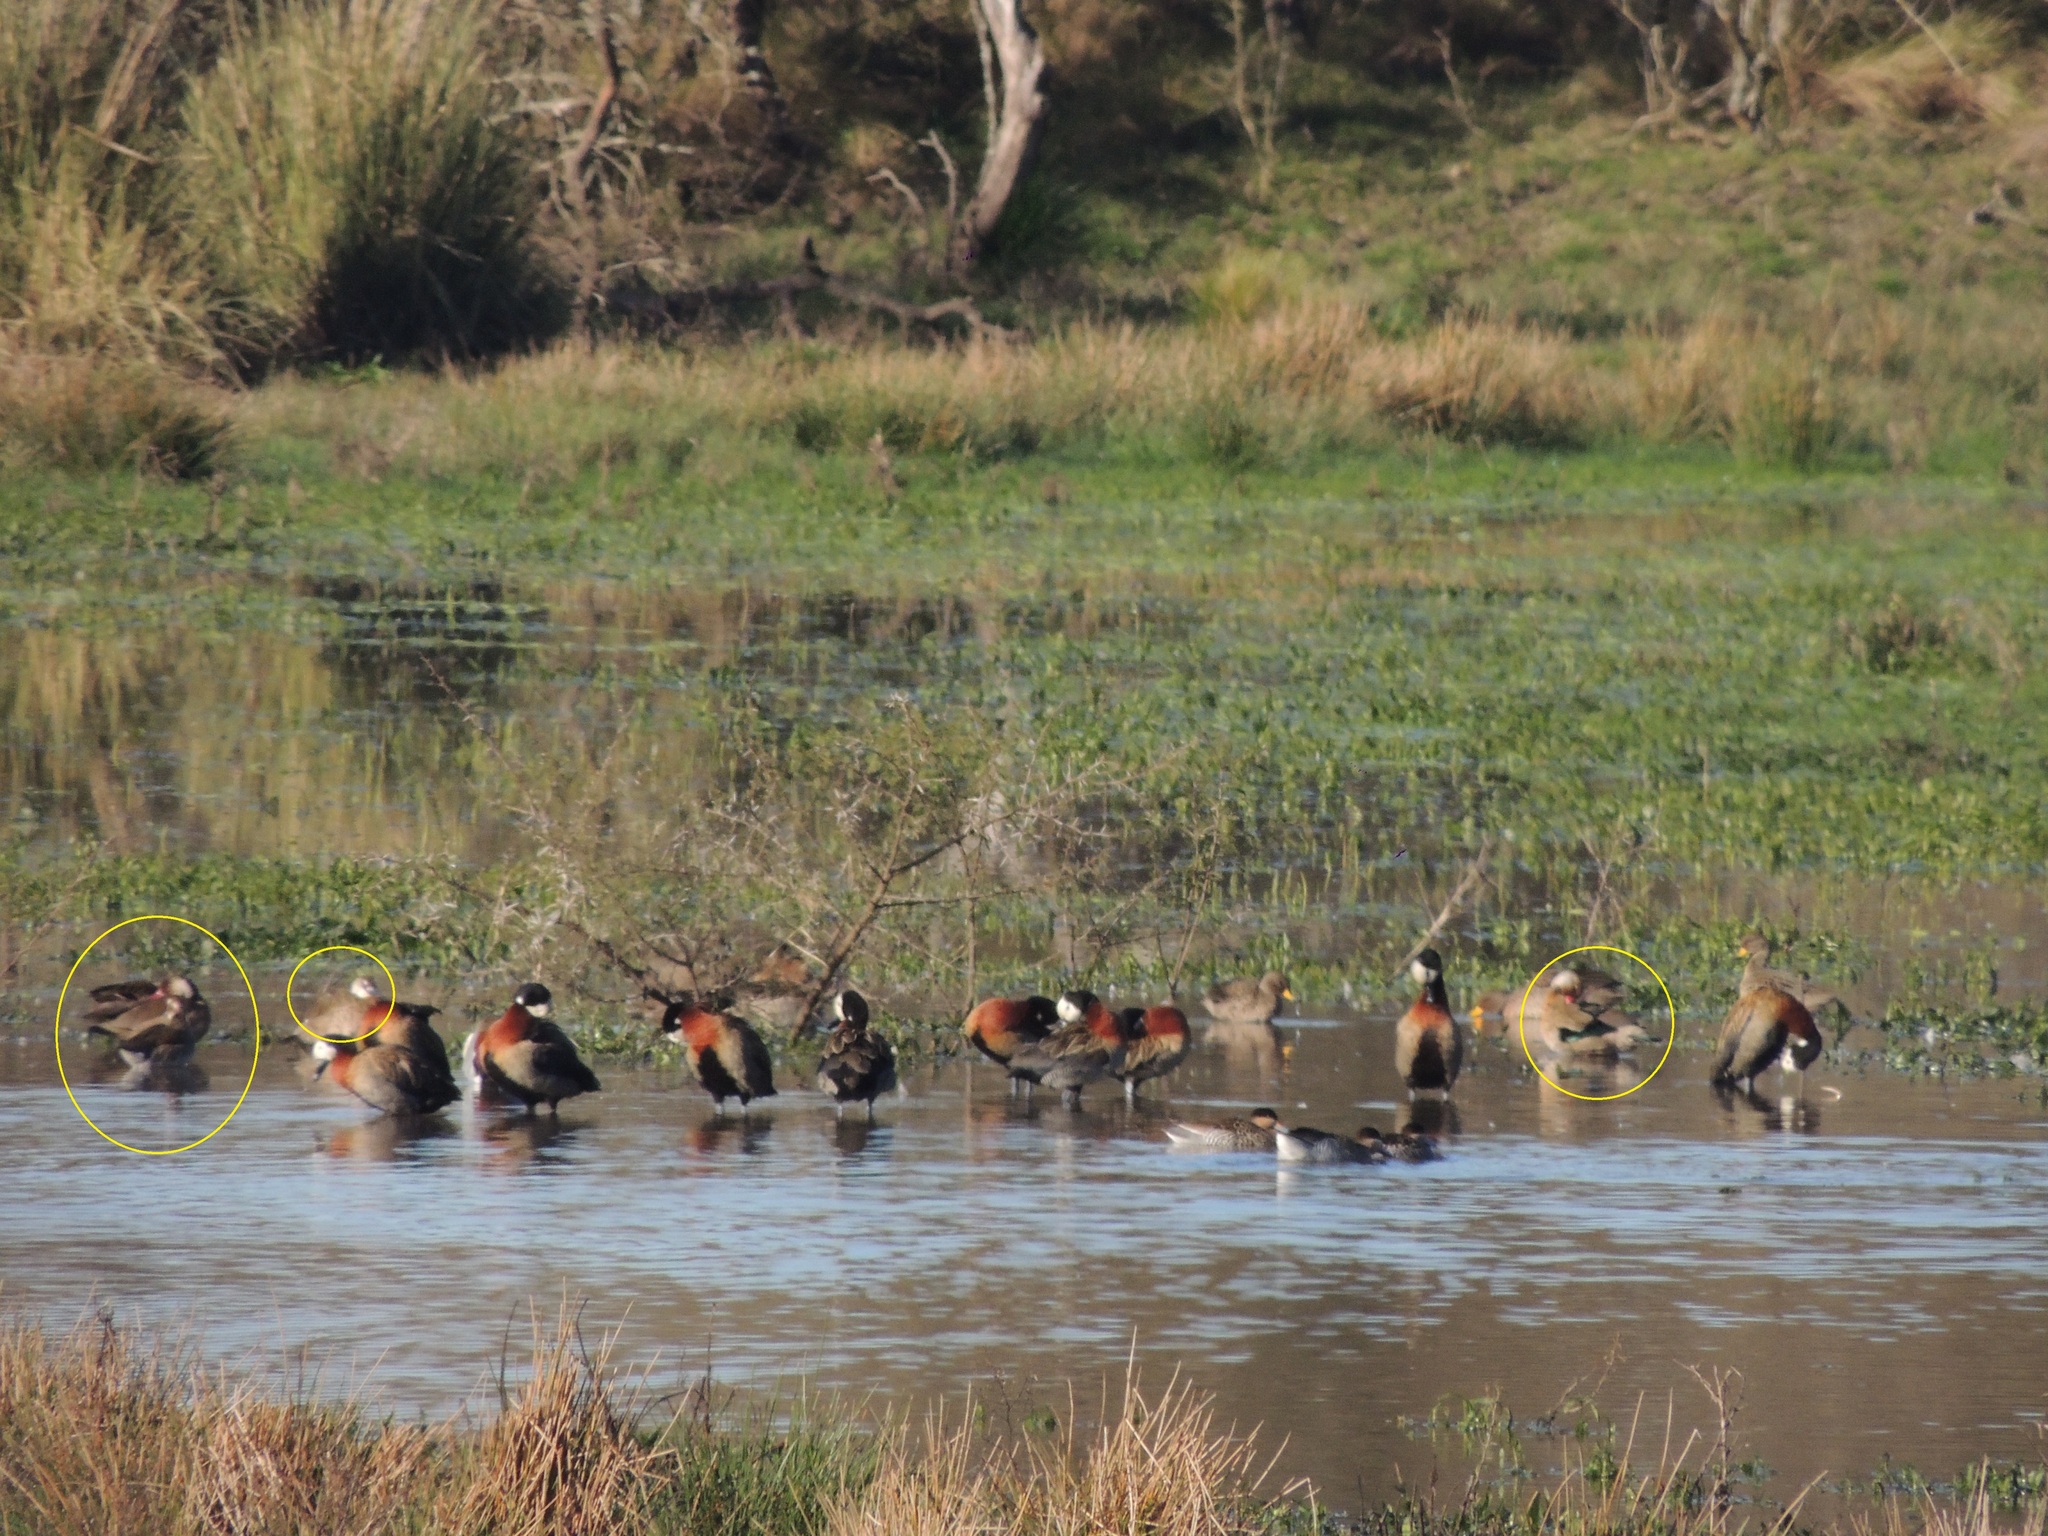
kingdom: Animalia
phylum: Chordata
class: Aves
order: Anseriformes
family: Anatidae
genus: Amazonetta
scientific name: Amazonetta brasiliensis
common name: Brazilian teal
